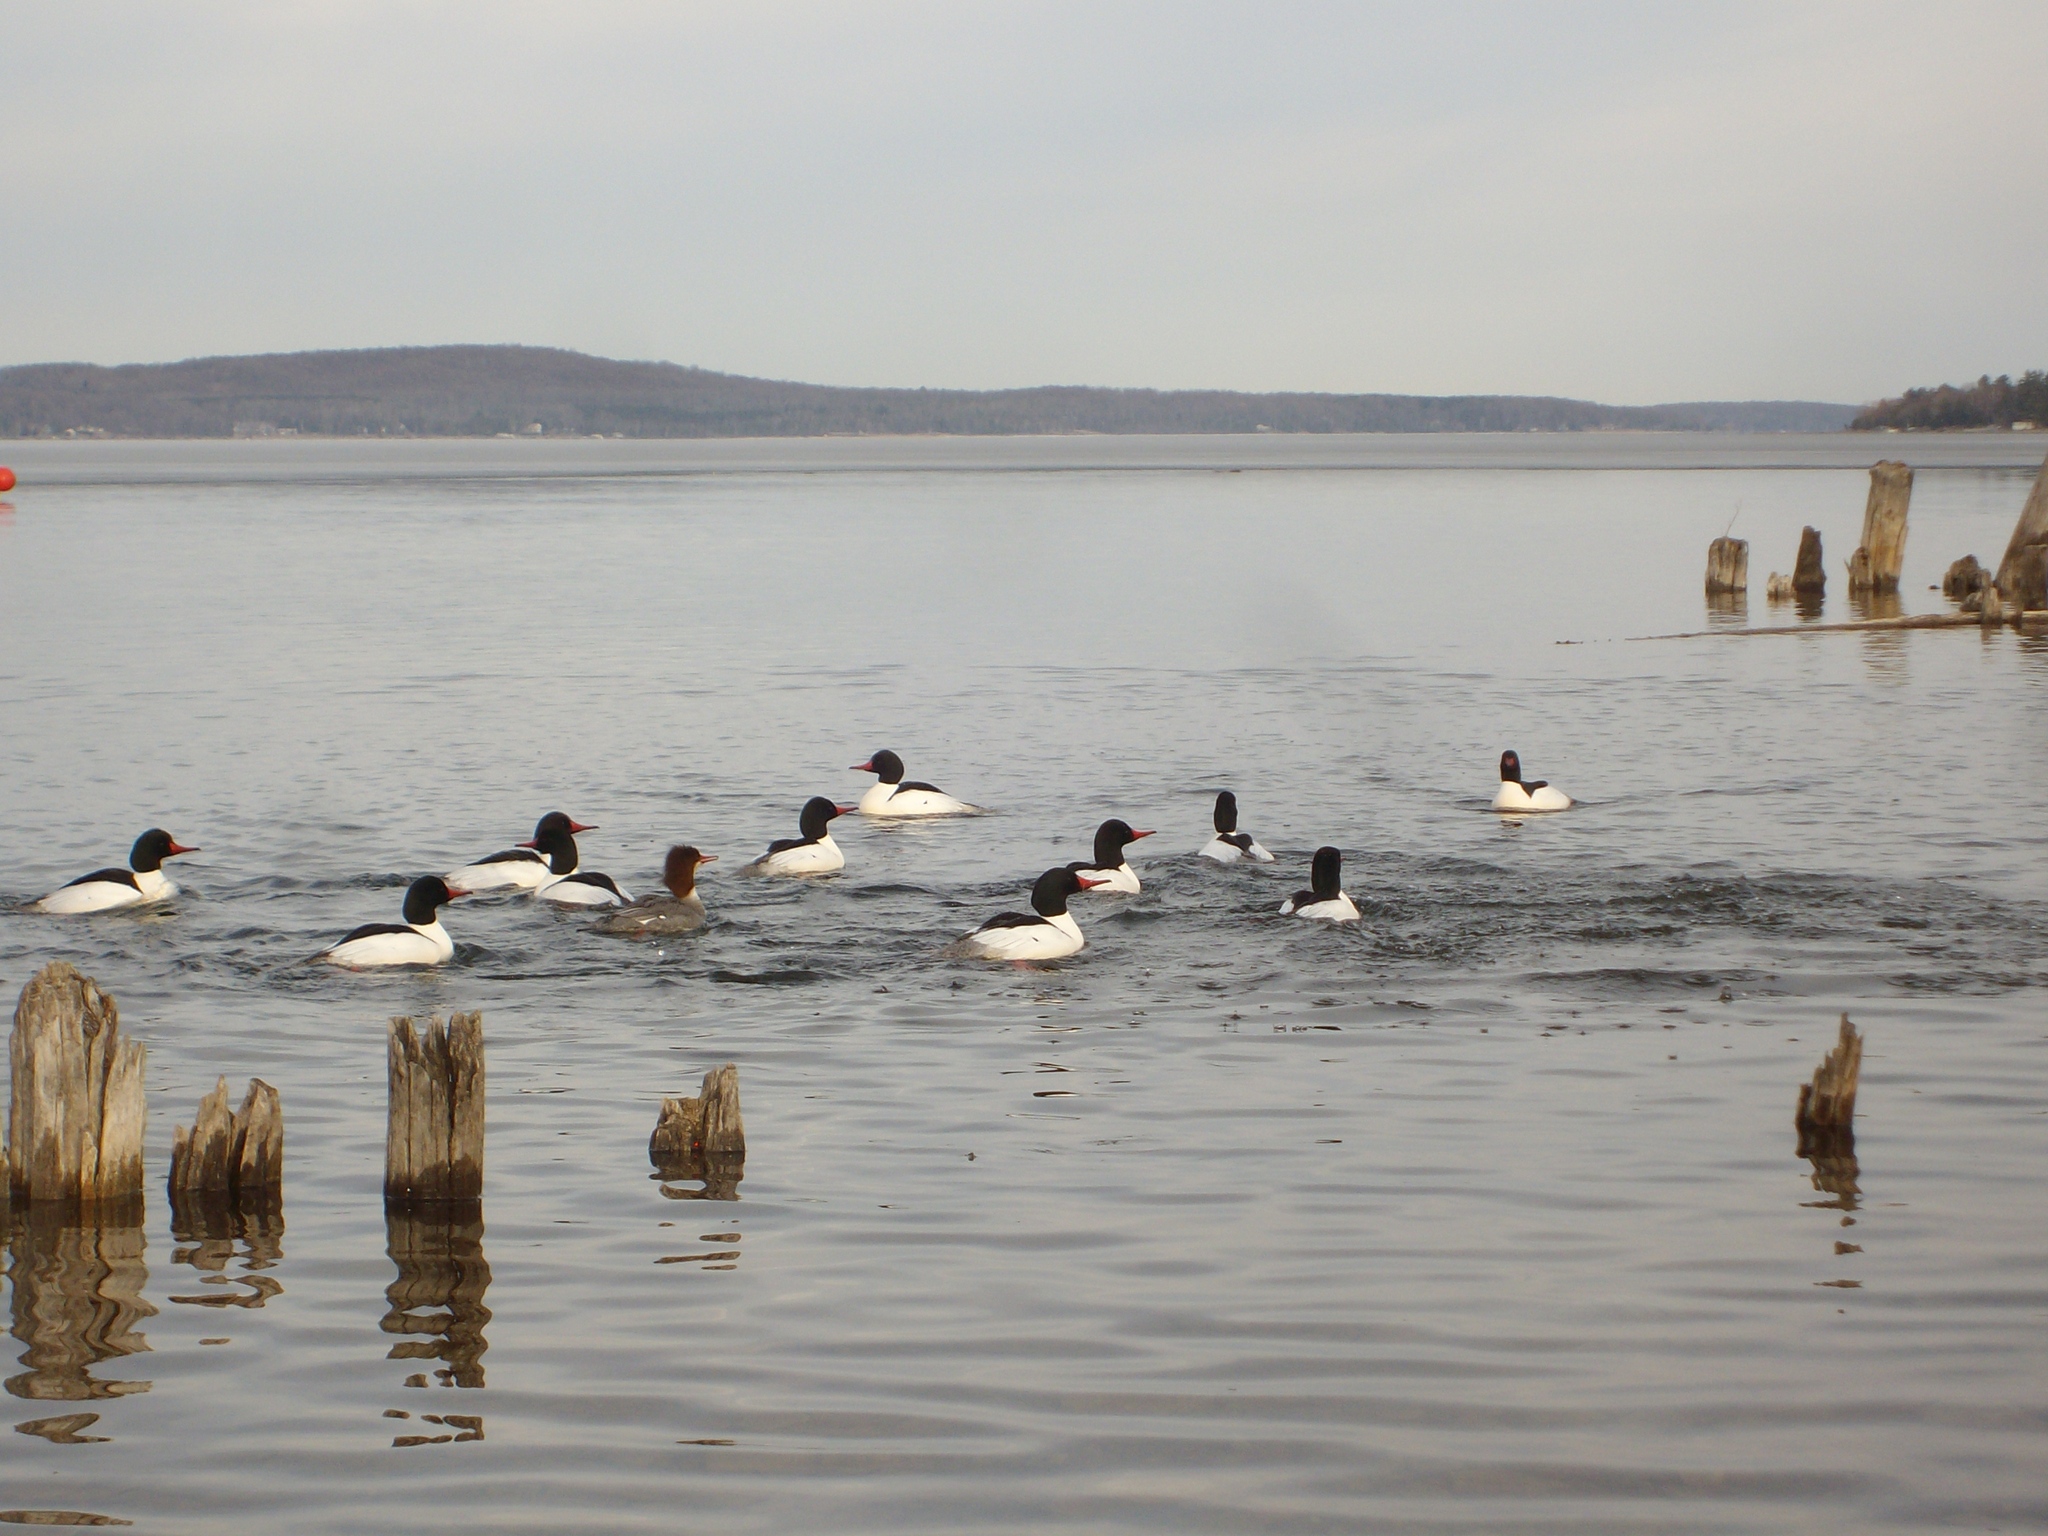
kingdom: Animalia
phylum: Chordata
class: Aves
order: Anseriformes
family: Anatidae
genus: Mergus
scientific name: Mergus merganser
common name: Common merganser
